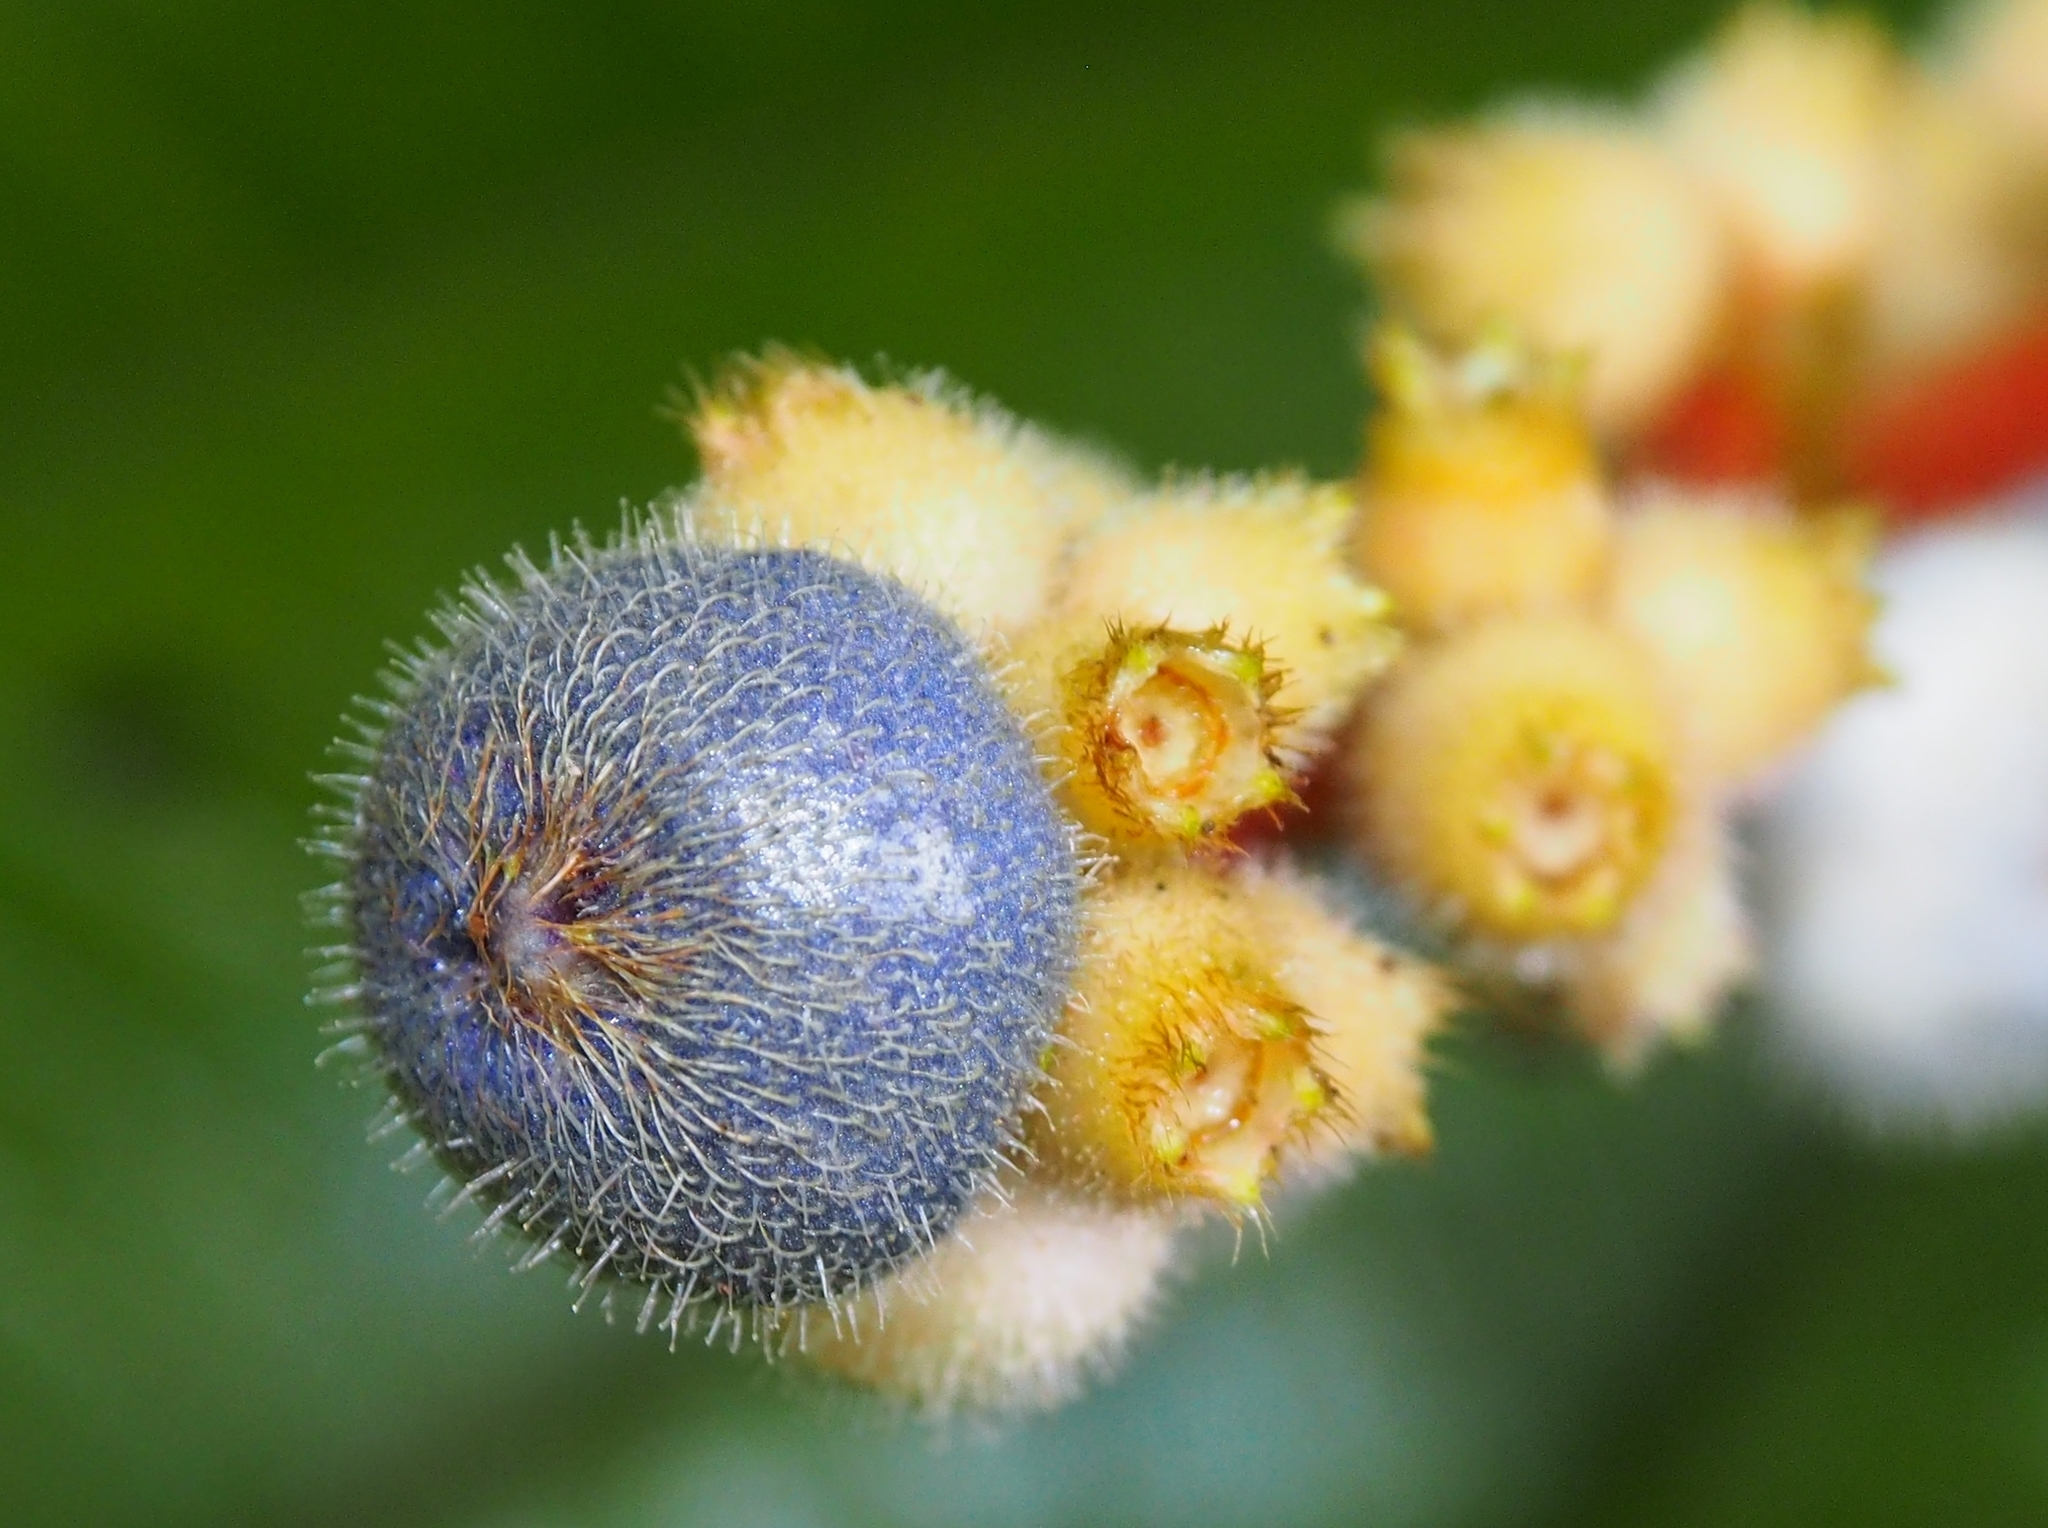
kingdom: Plantae
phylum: Tracheophyta
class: Magnoliopsida
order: Myrtales
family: Melastomataceae
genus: Miconia
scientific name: Miconia nervosa
